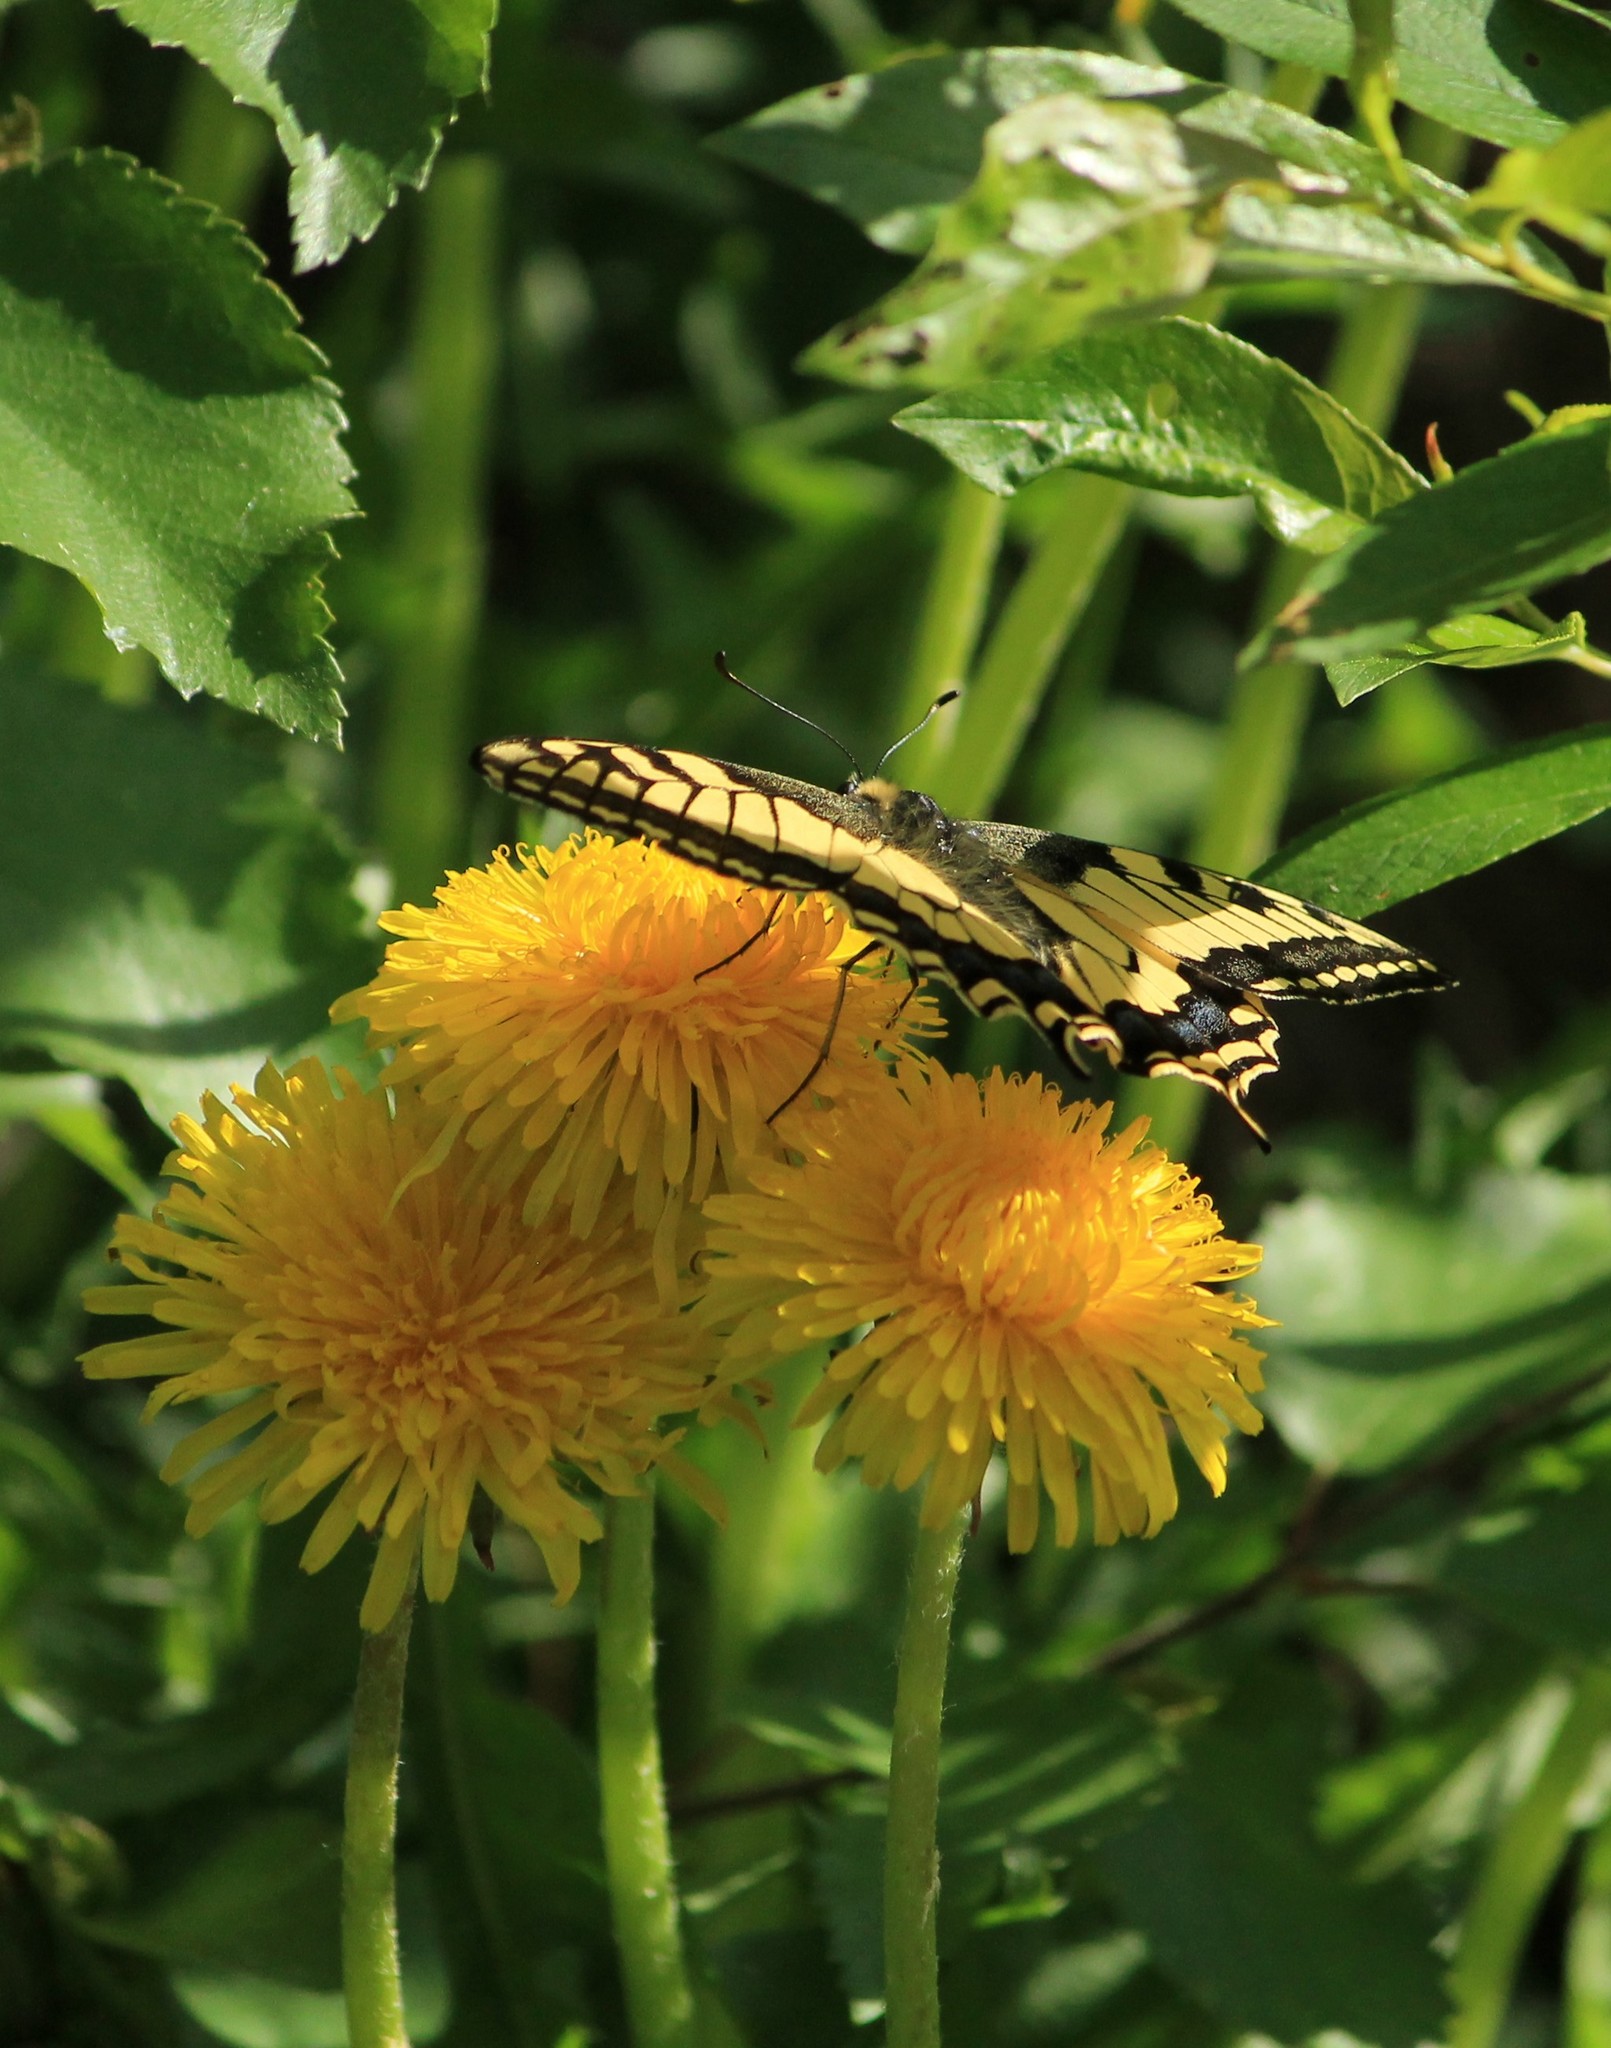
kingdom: Animalia
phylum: Arthropoda
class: Insecta
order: Lepidoptera
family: Papilionidae
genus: Papilio
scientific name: Papilio machaon
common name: Swallowtail
